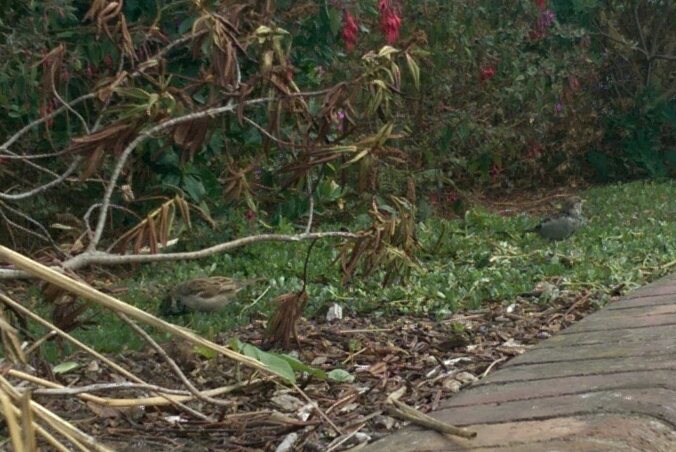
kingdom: Animalia
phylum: Chordata
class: Aves
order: Passeriformes
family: Passeridae
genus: Passer
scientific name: Passer domesticus
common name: House sparrow
